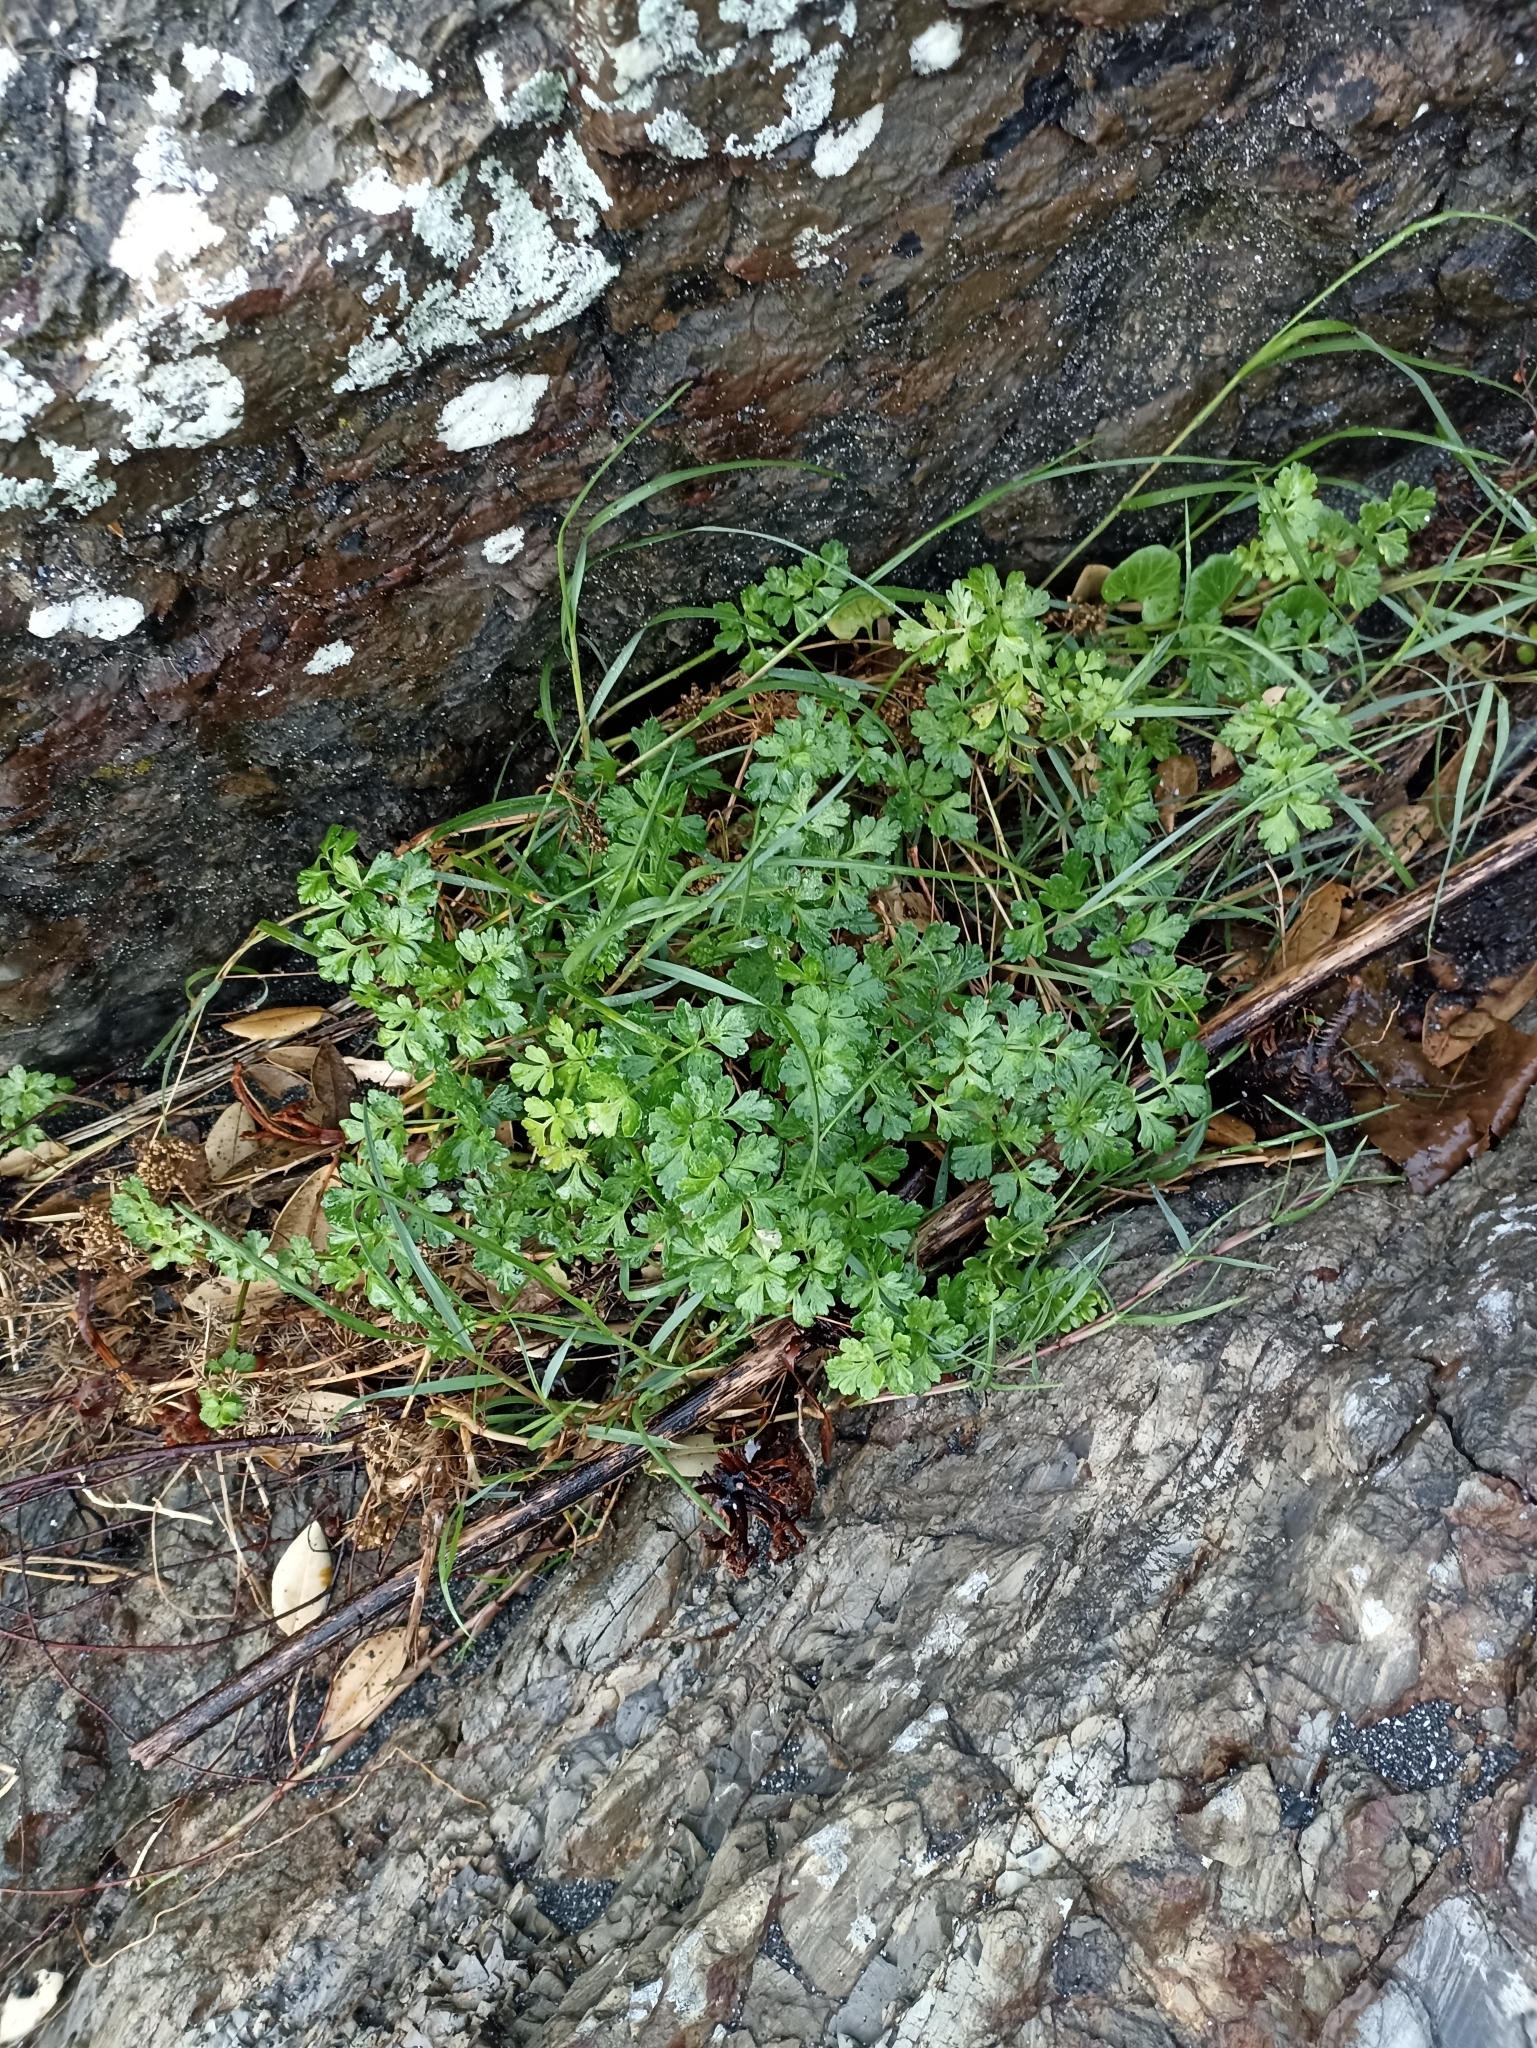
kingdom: Plantae
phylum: Tracheophyta
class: Magnoliopsida
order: Apiales
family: Apiaceae
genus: Apium
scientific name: Apium prostratum
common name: Prostrate marshwort
